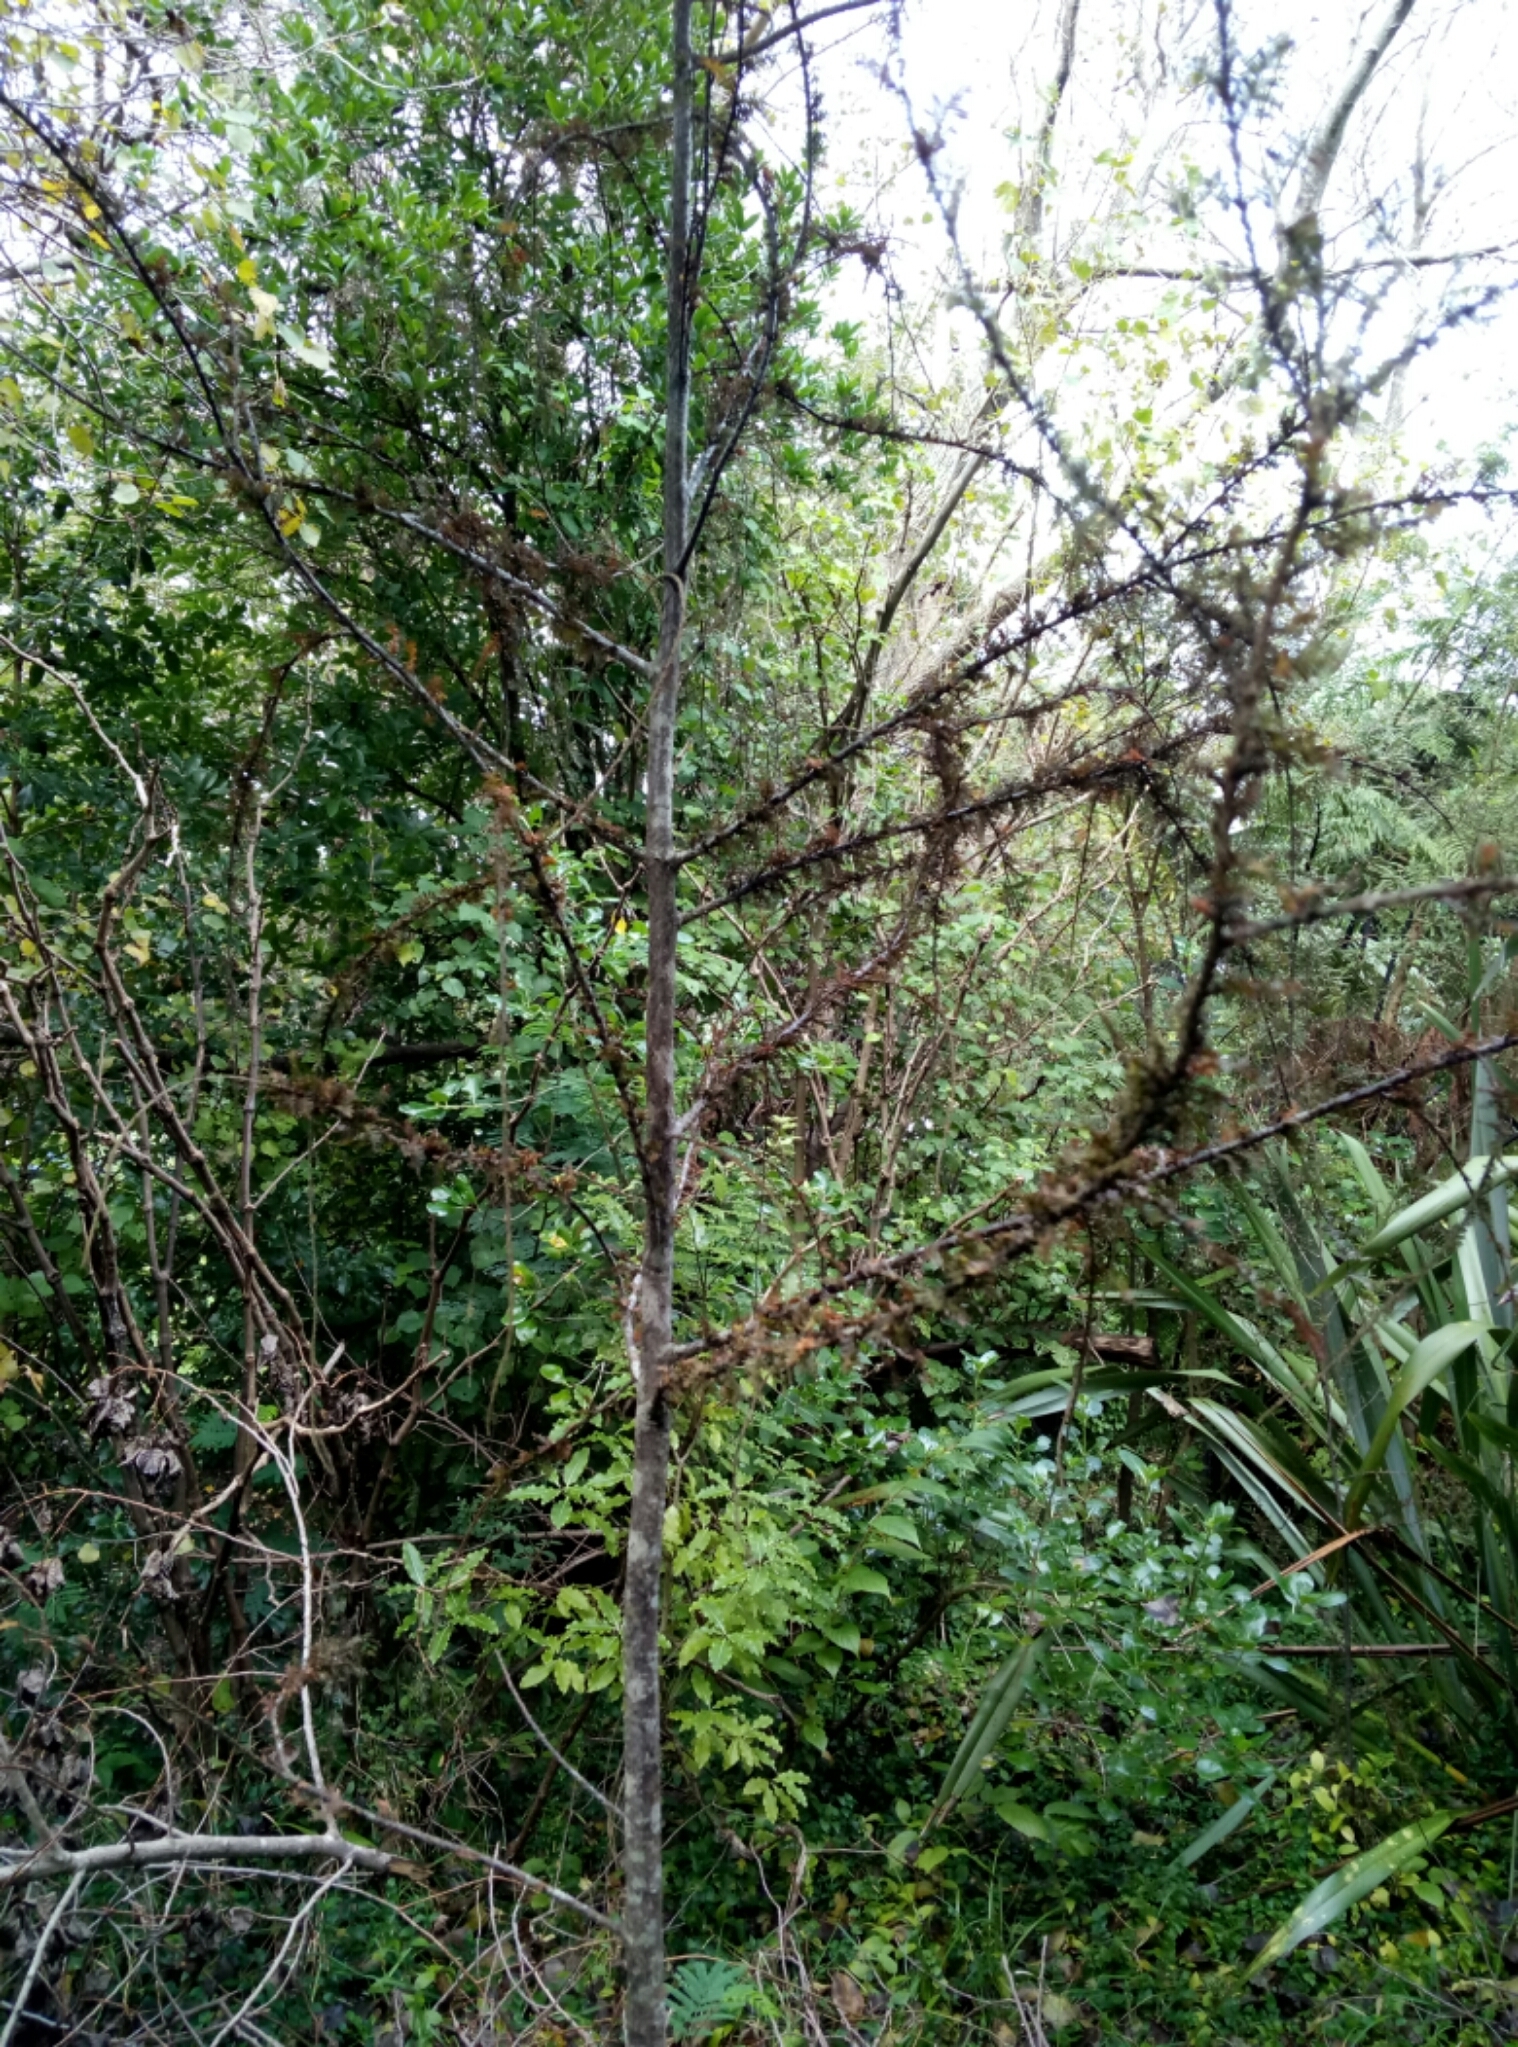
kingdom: Plantae
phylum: Tracheophyta
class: Pinopsida
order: Pinales
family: Podocarpaceae
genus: Dacrycarpus
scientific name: Dacrycarpus dacrydioides
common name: White pine
